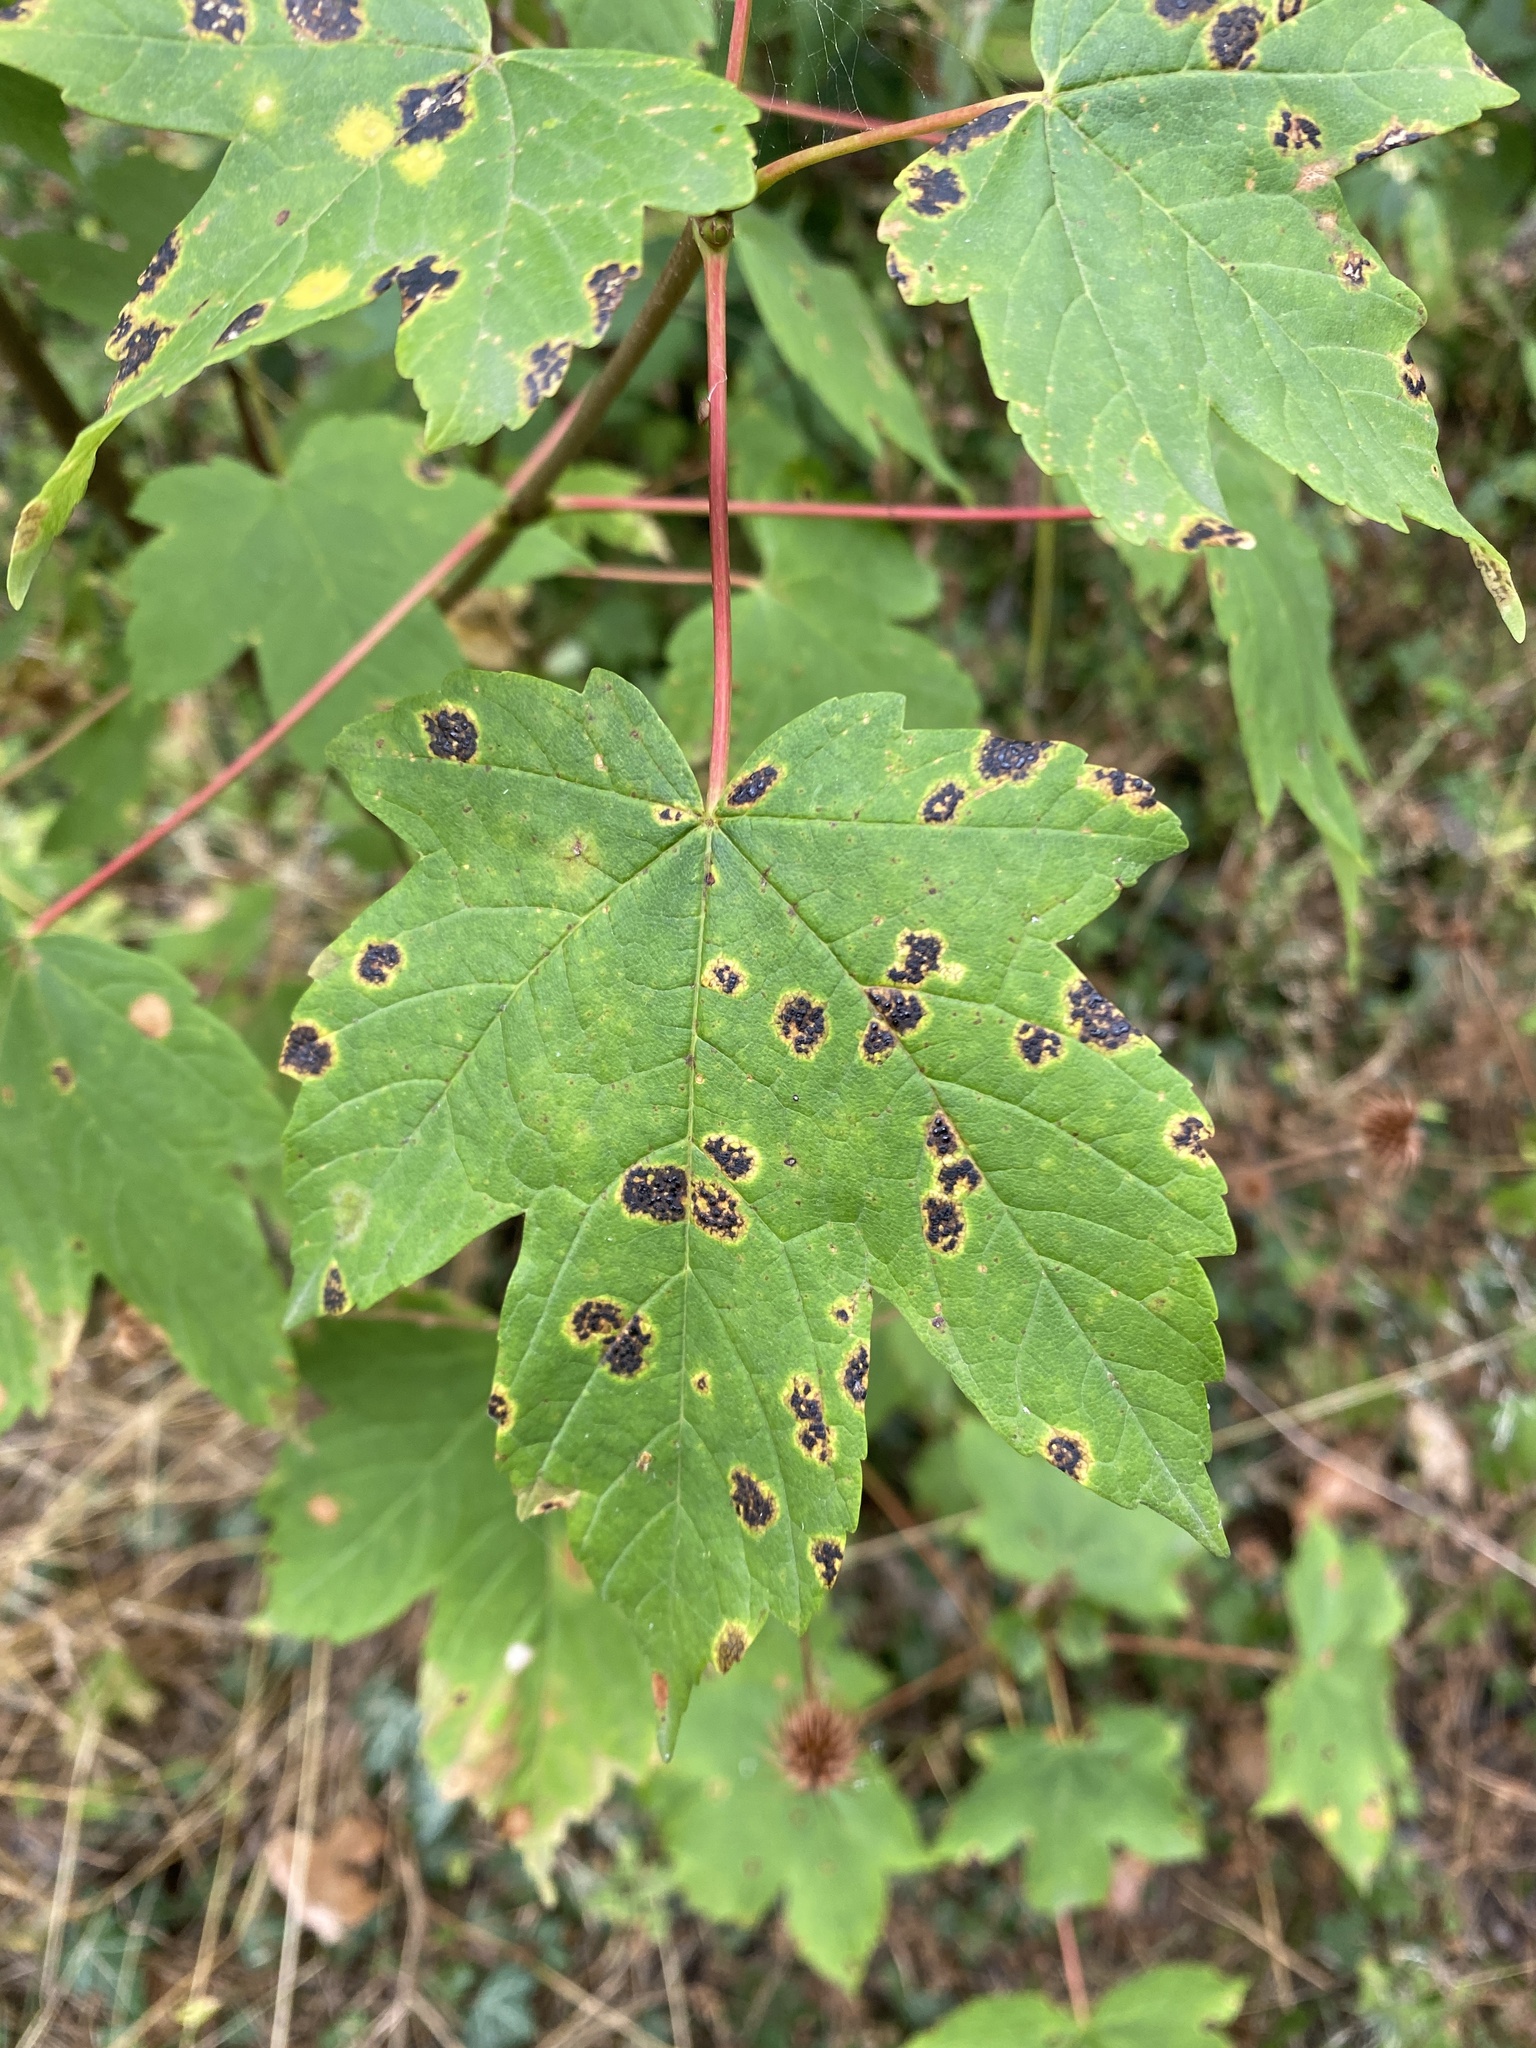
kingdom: Fungi
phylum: Ascomycota
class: Leotiomycetes
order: Rhytismatales
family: Rhytismataceae
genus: Rhytisma
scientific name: Rhytisma acerinum
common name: European tar spot
